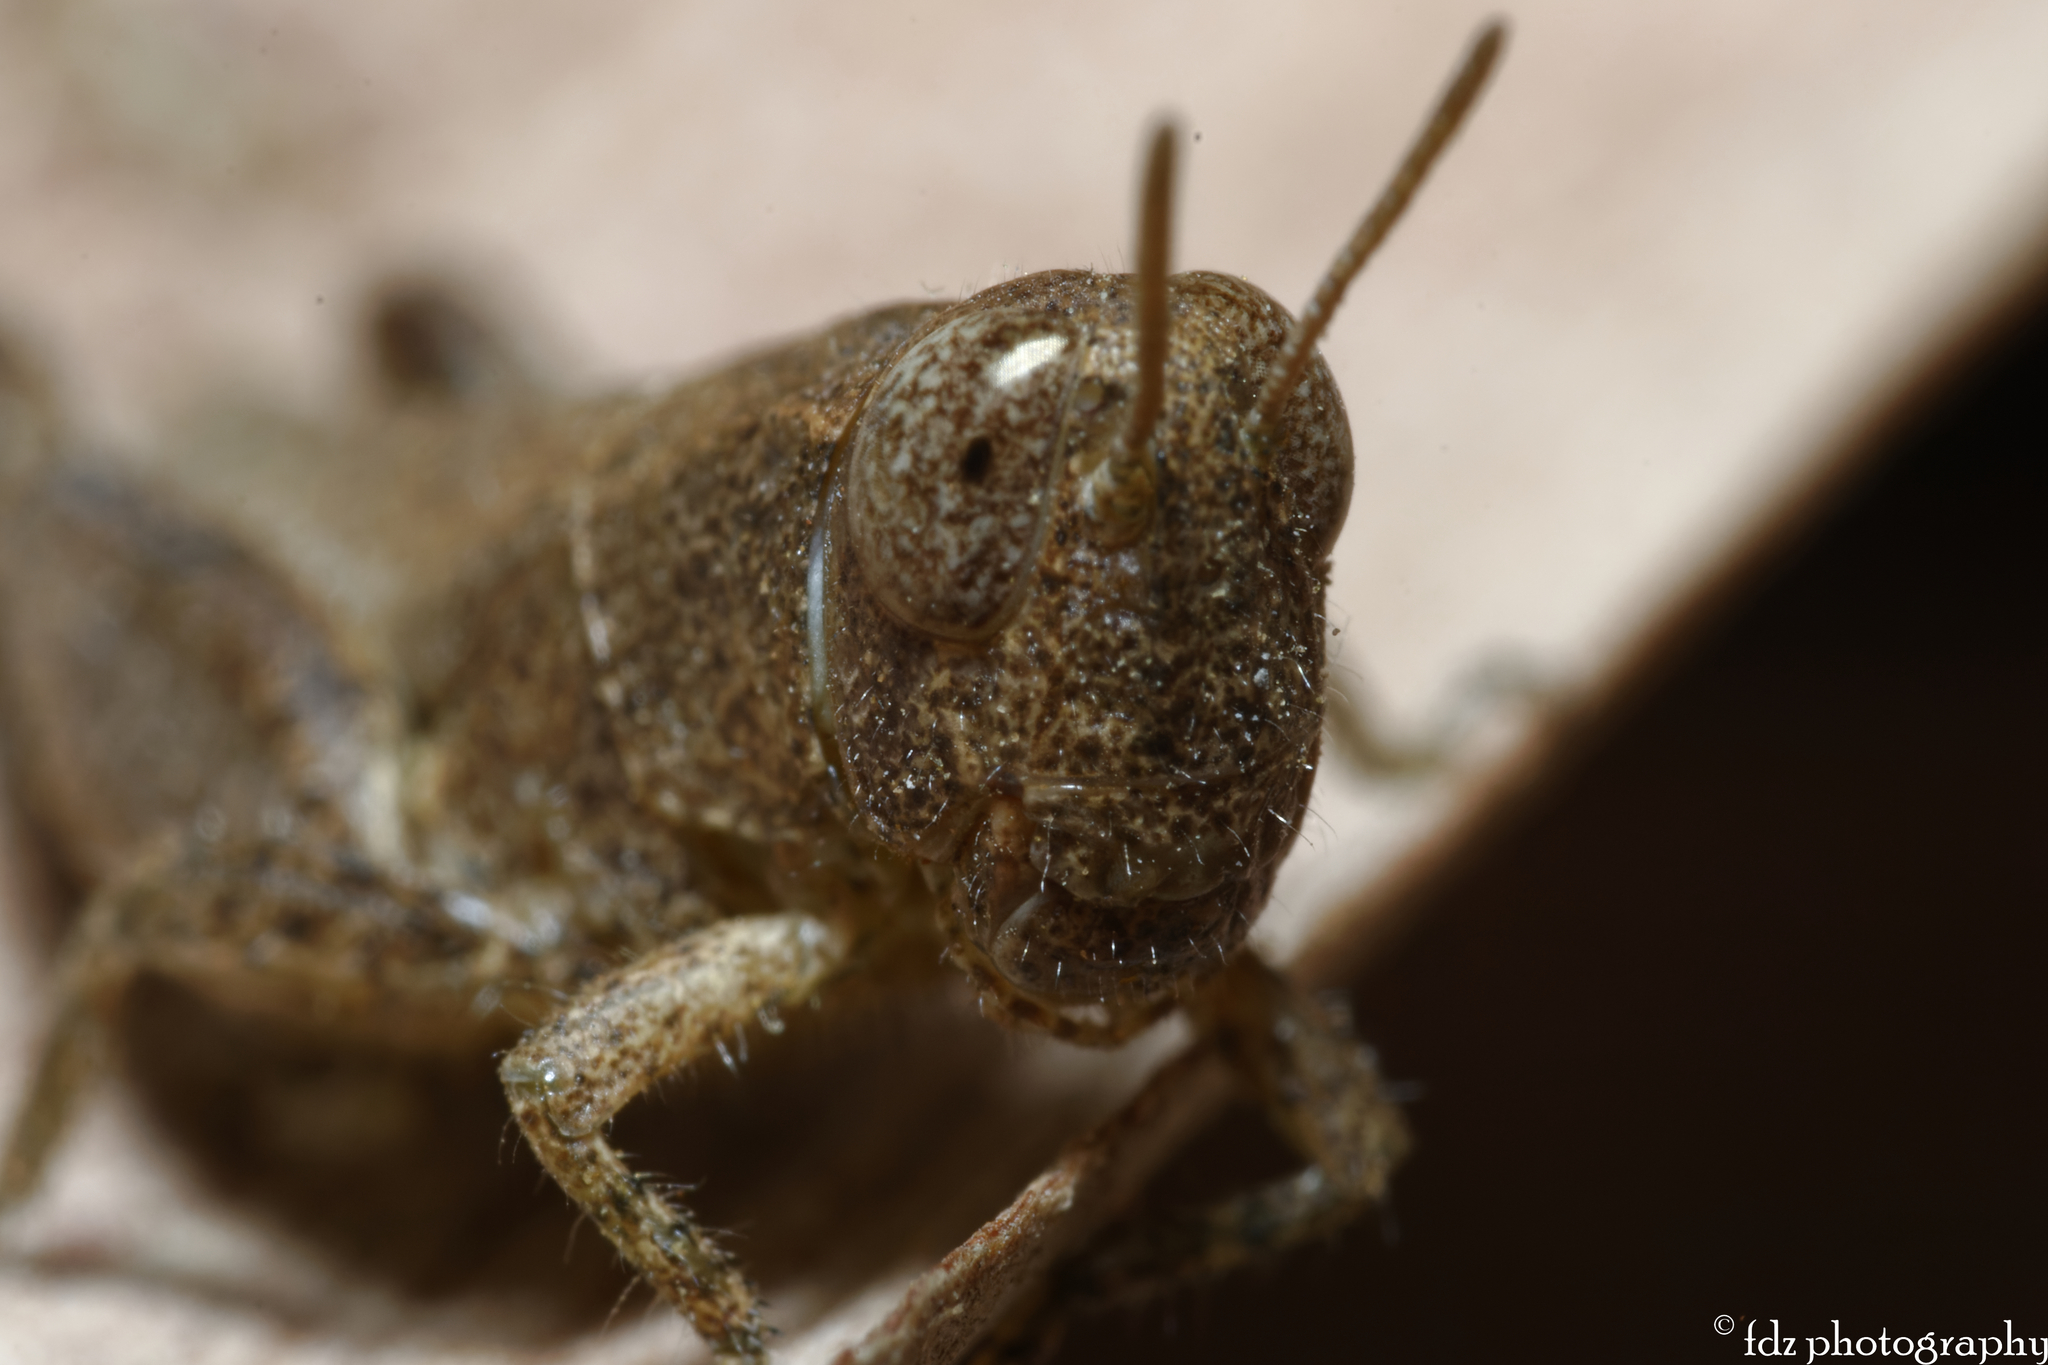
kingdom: Animalia
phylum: Arthropoda
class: Insecta
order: Orthoptera
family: Acrididae
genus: Pezotettix
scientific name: Pezotettix giornae
